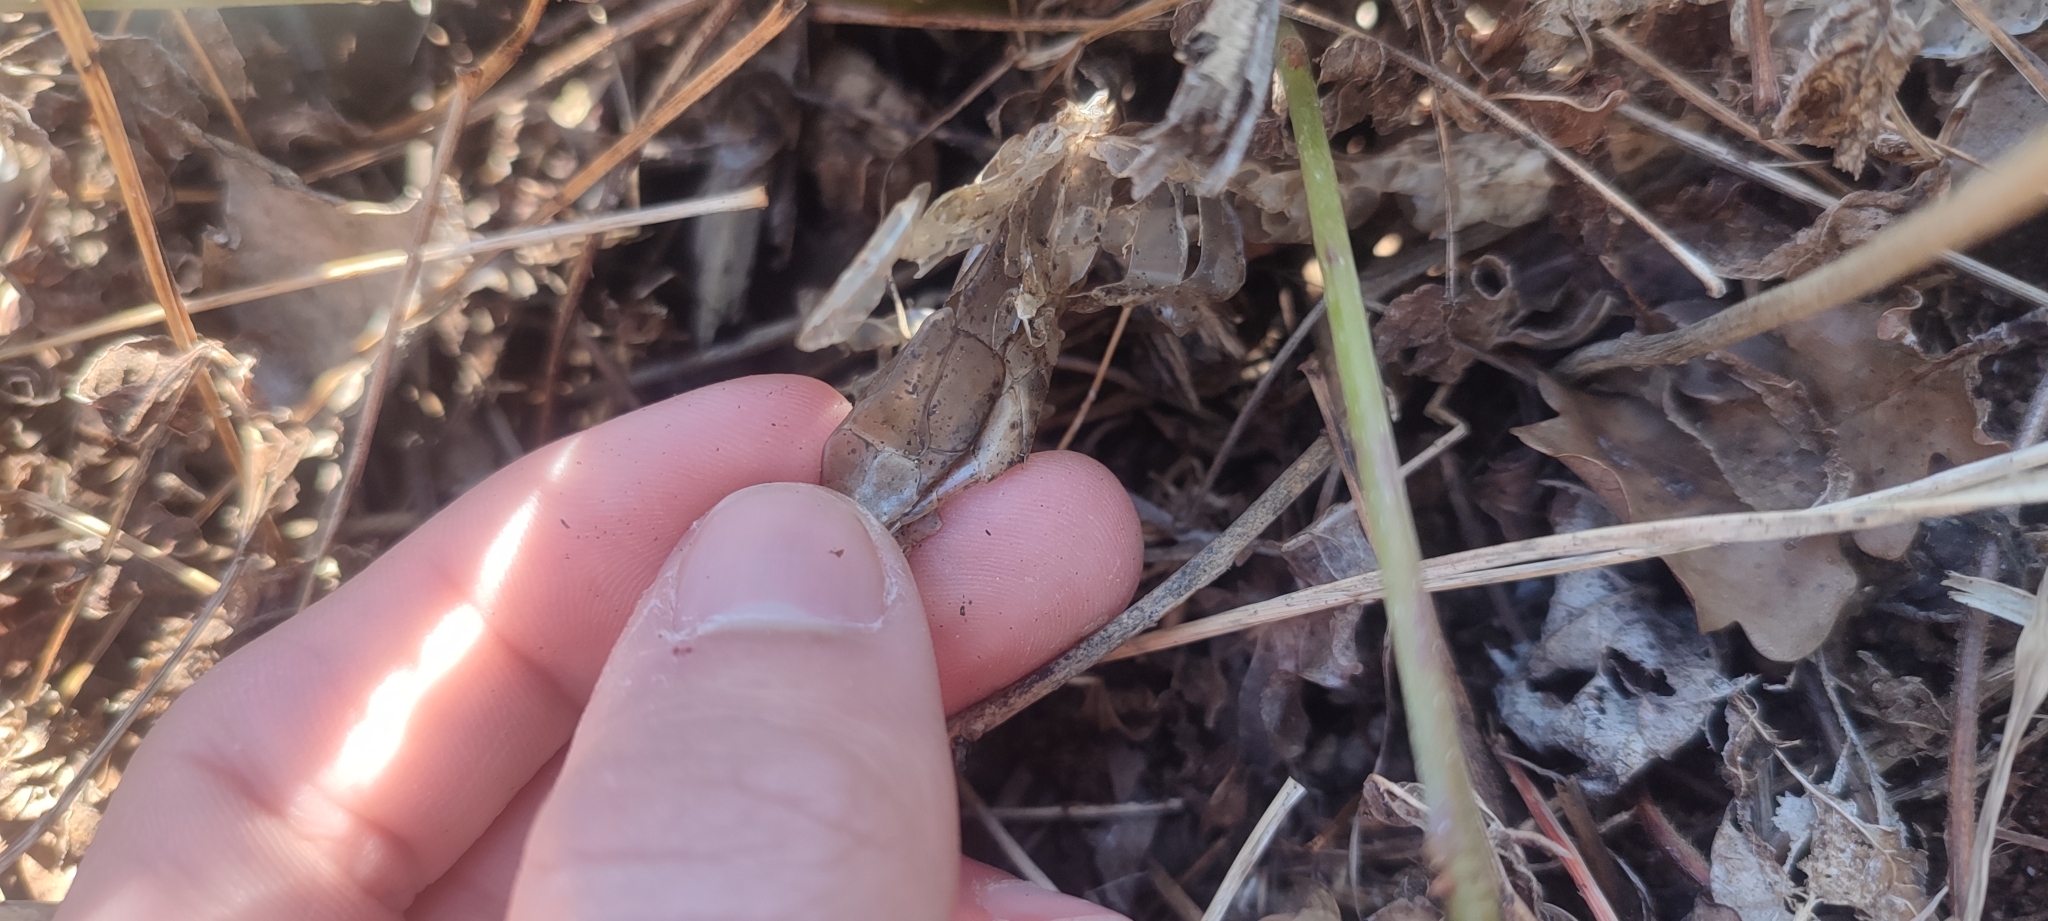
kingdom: Animalia
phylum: Chordata
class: Squamata
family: Psammophiidae
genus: Malpolon
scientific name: Malpolon monspessulanus
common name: Montpellier snake
